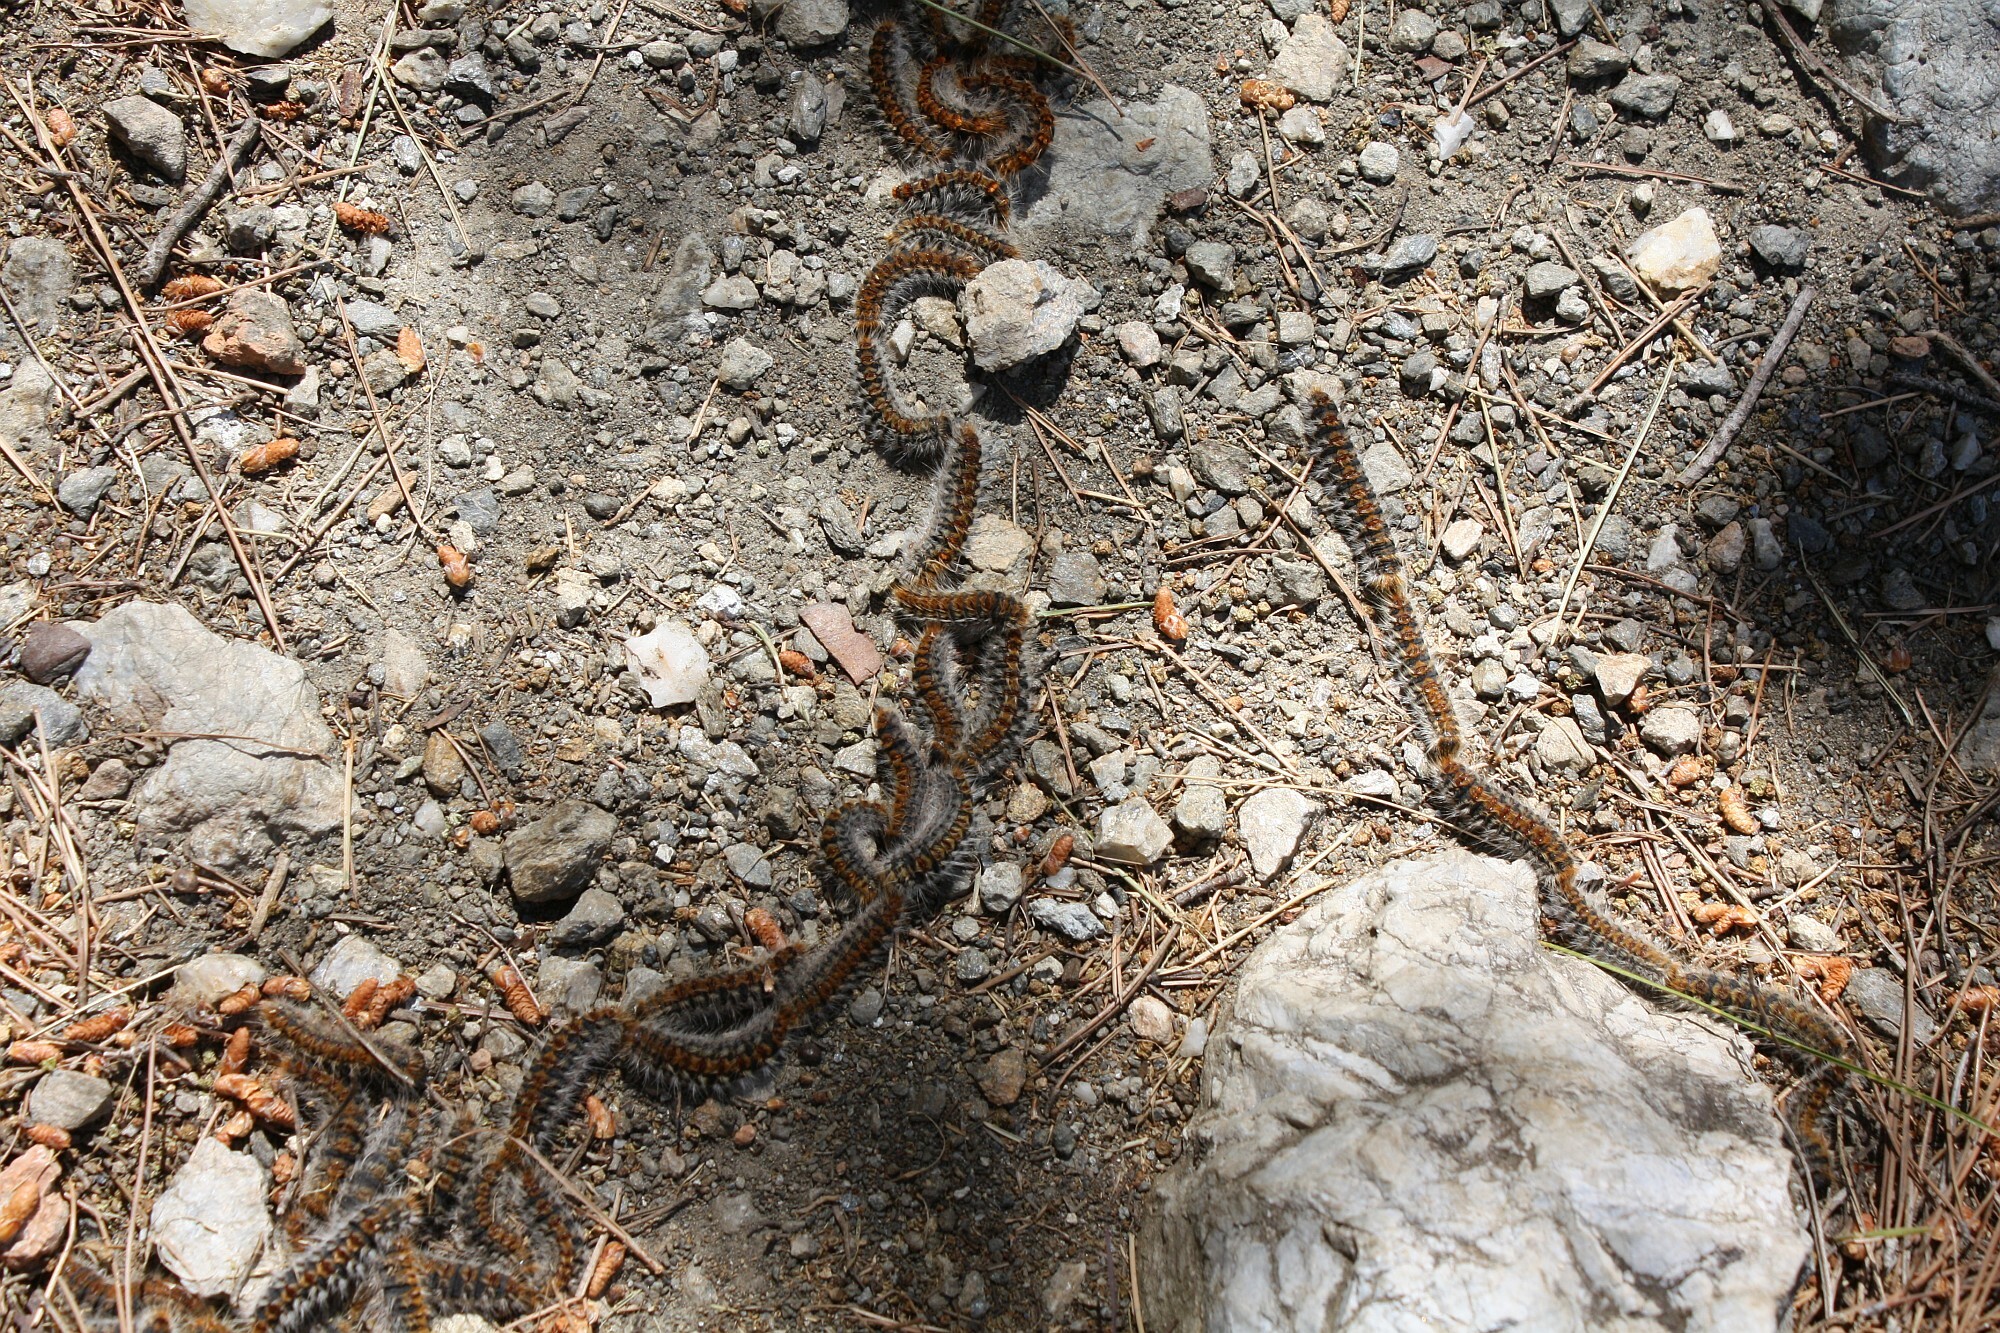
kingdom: Animalia
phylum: Arthropoda
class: Insecta
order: Lepidoptera
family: Notodontidae
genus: Thaumetopoea
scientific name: Thaumetopoea pityocampa
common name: Pine processionary
